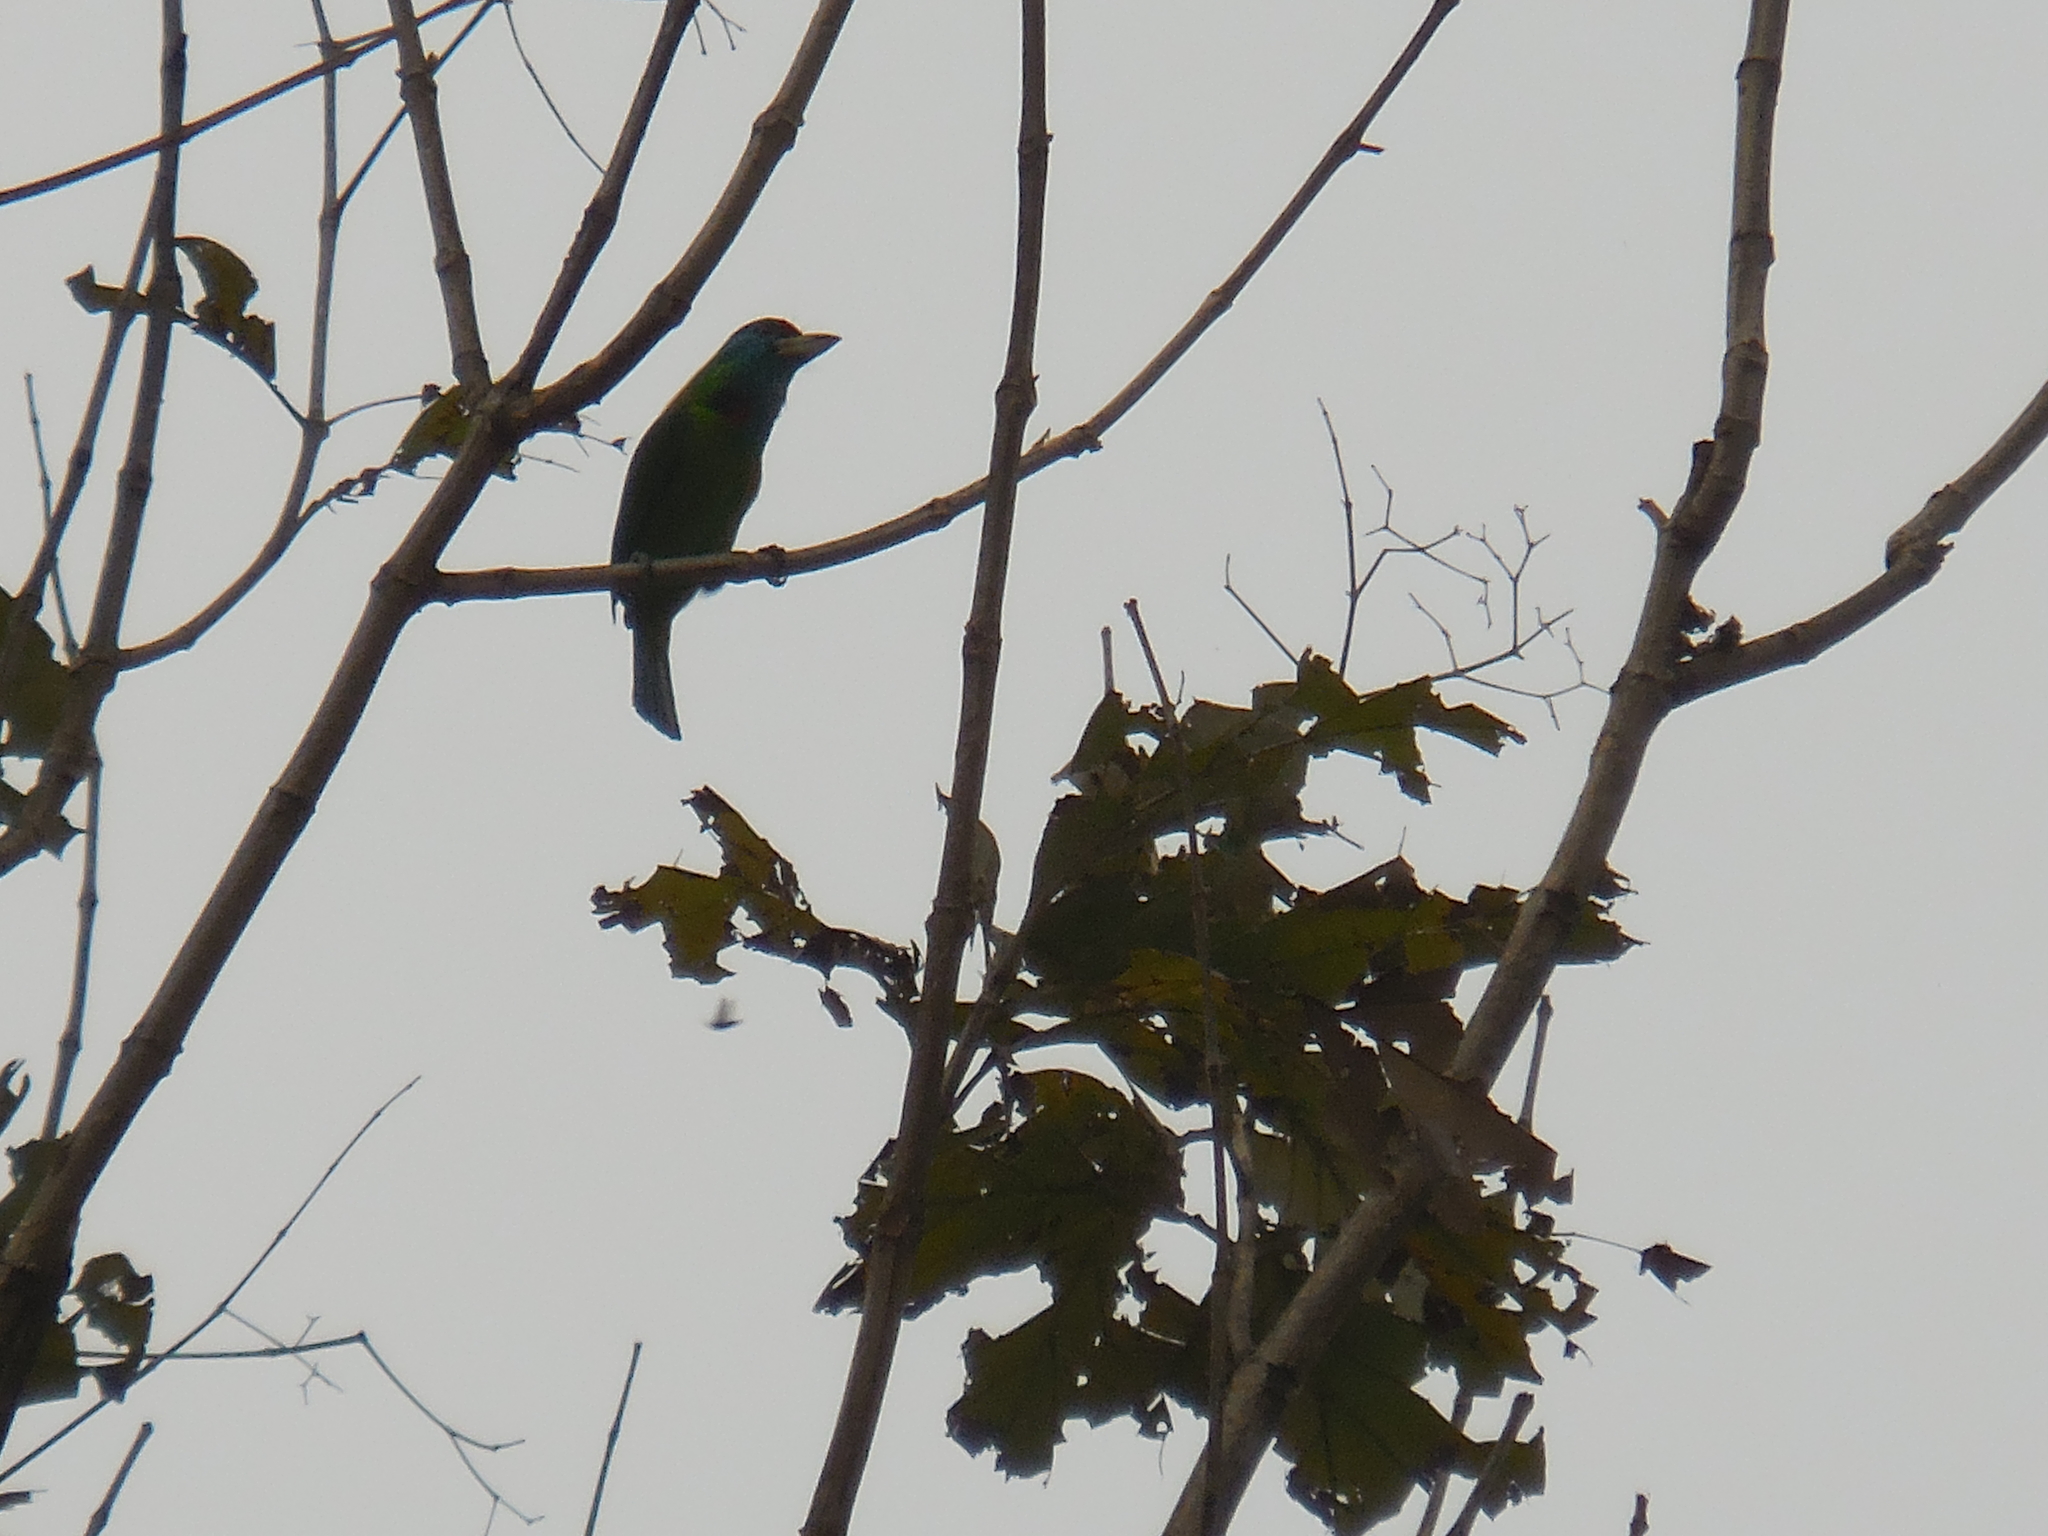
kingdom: Animalia
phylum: Chordata
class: Aves
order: Piciformes
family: Megalaimidae
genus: Psilopogon
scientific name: Psilopogon asiaticus
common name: Blue-throated barbet
